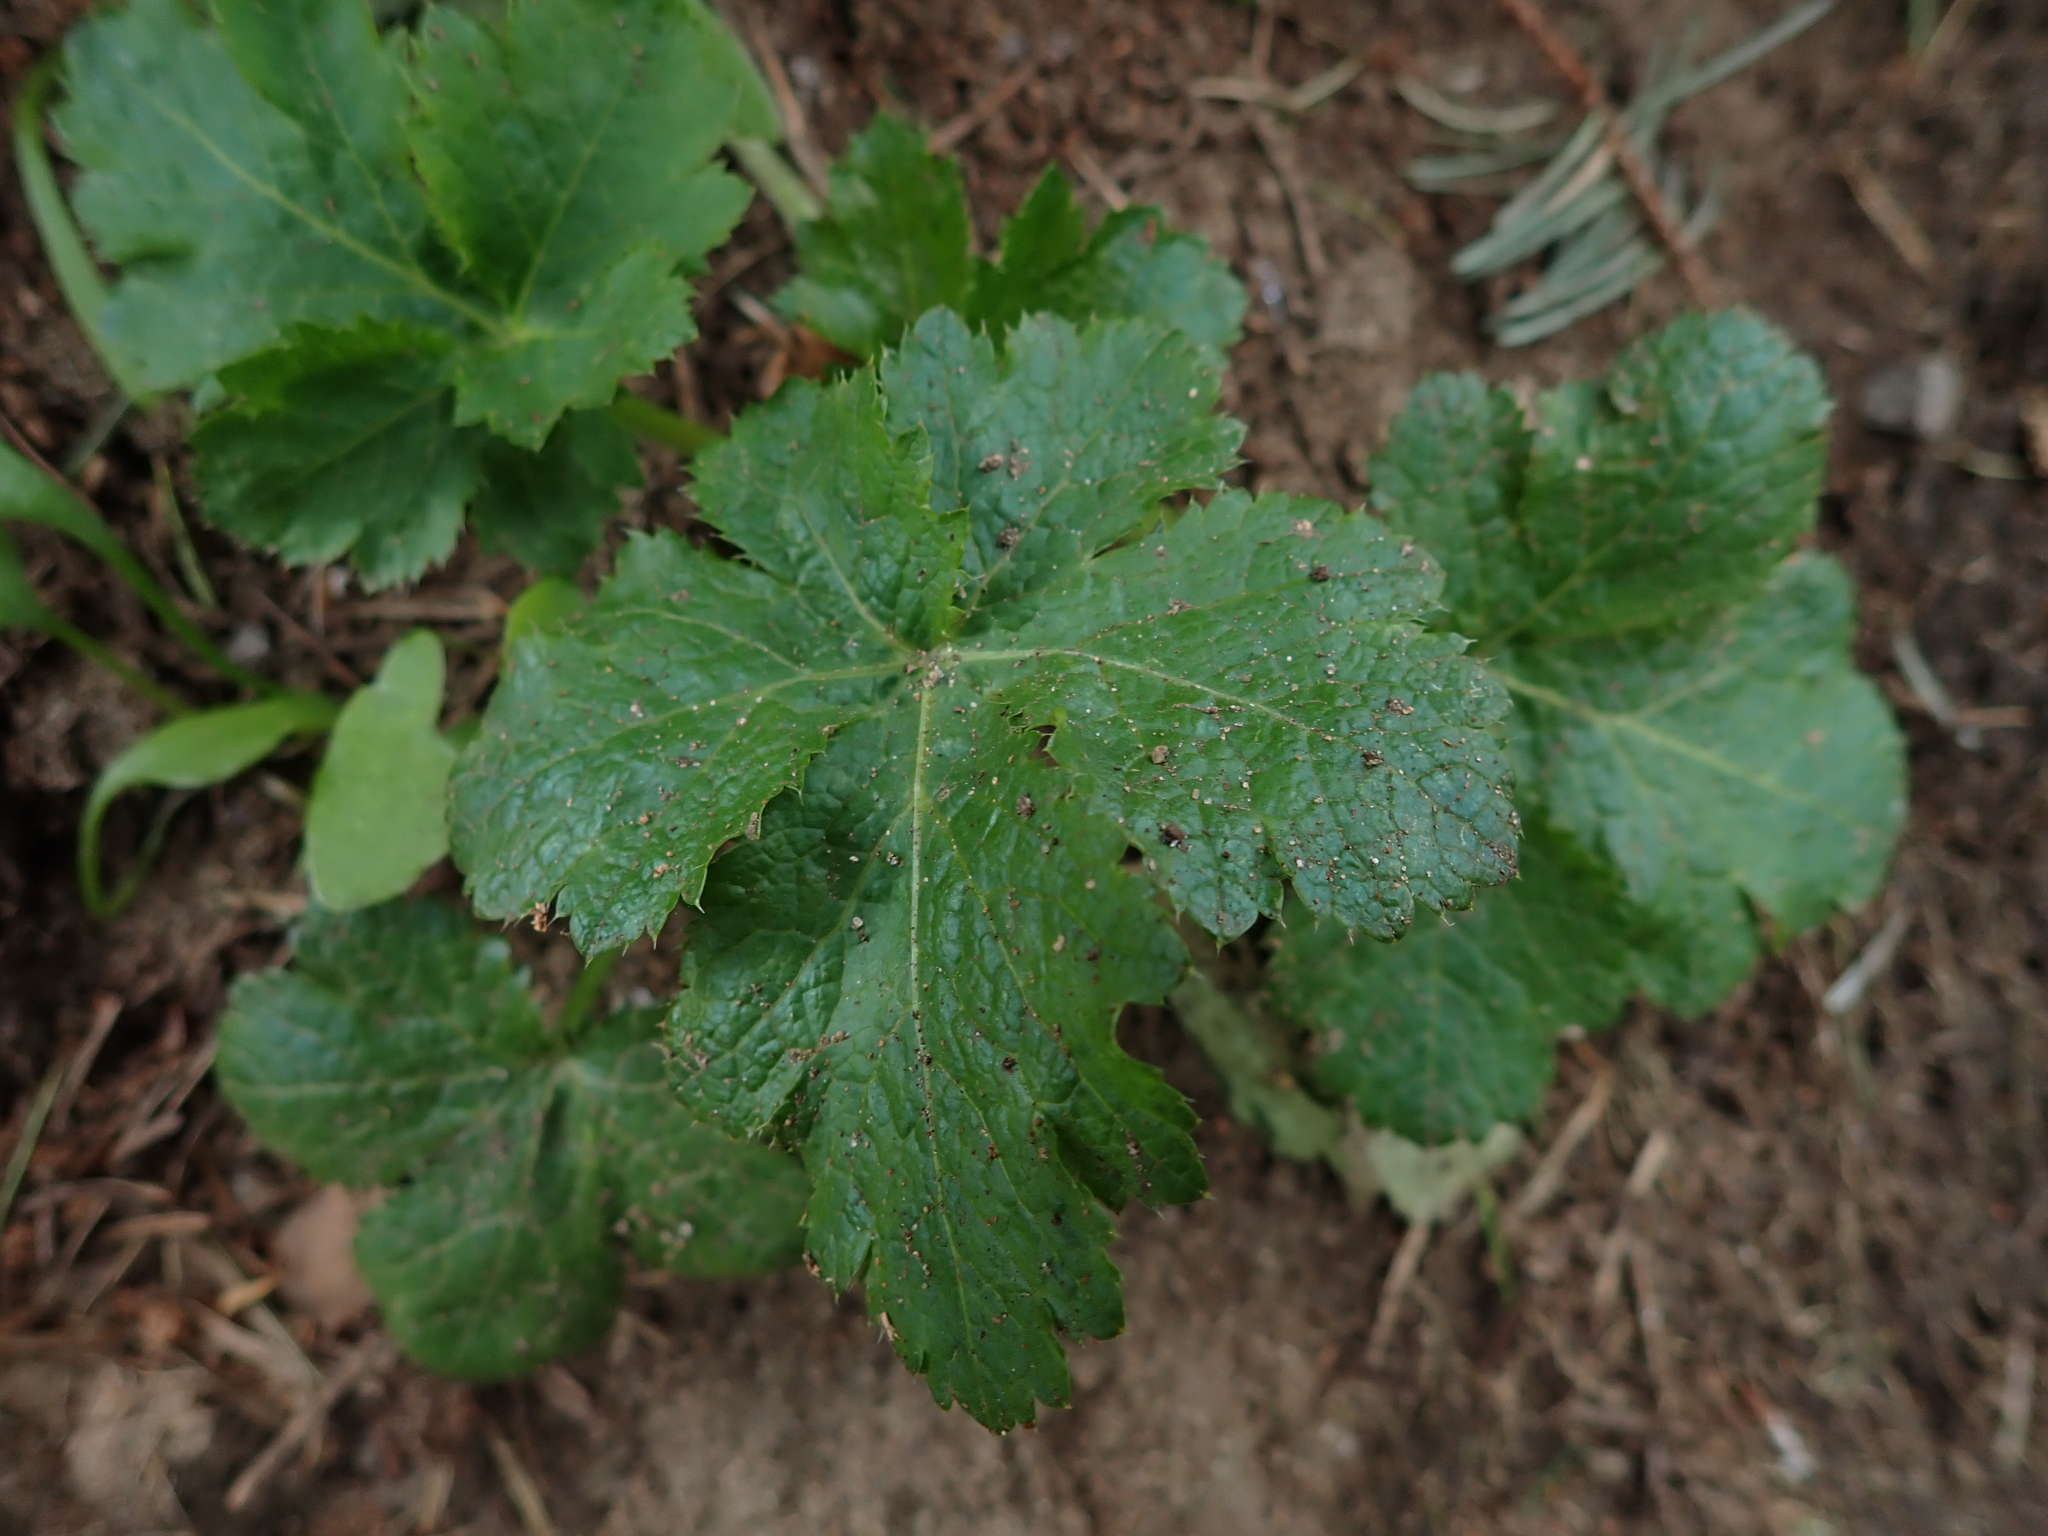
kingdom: Plantae
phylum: Tracheophyta
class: Magnoliopsida
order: Apiales
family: Apiaceae
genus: Sanicula
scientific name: Sanicula crassicaulis
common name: Western snakeroot
